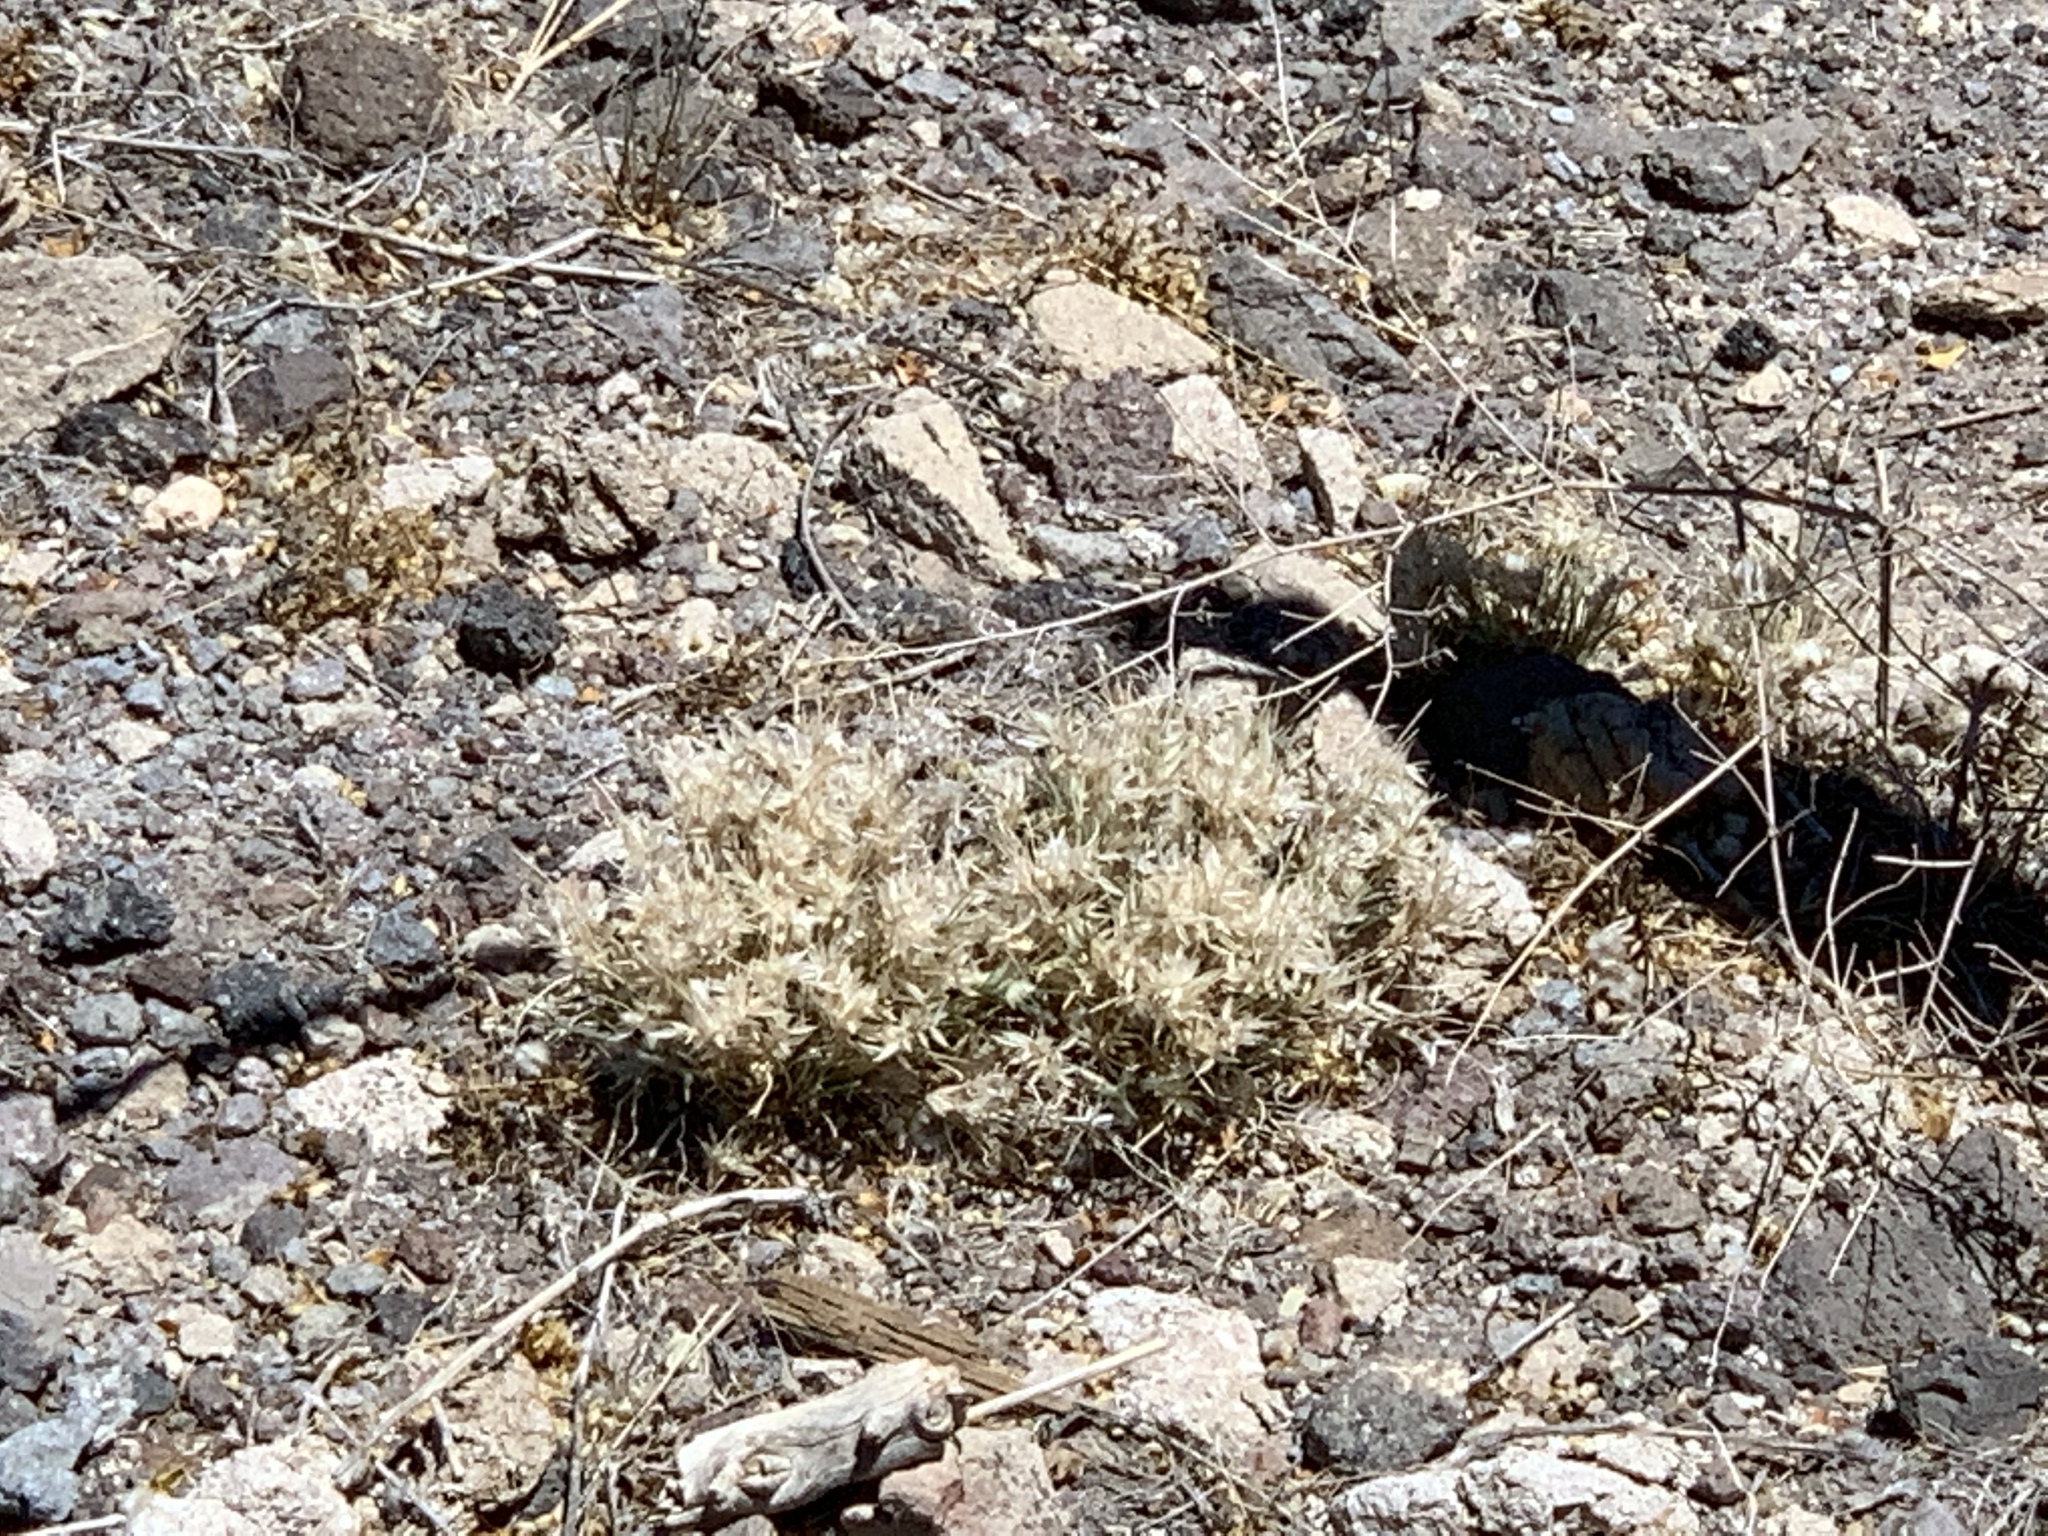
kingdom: Plantae
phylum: Tracheophyta
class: Liliopsida
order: Poales
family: Poaceae
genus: Dasyochloa
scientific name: Dasyochloa pulchella
